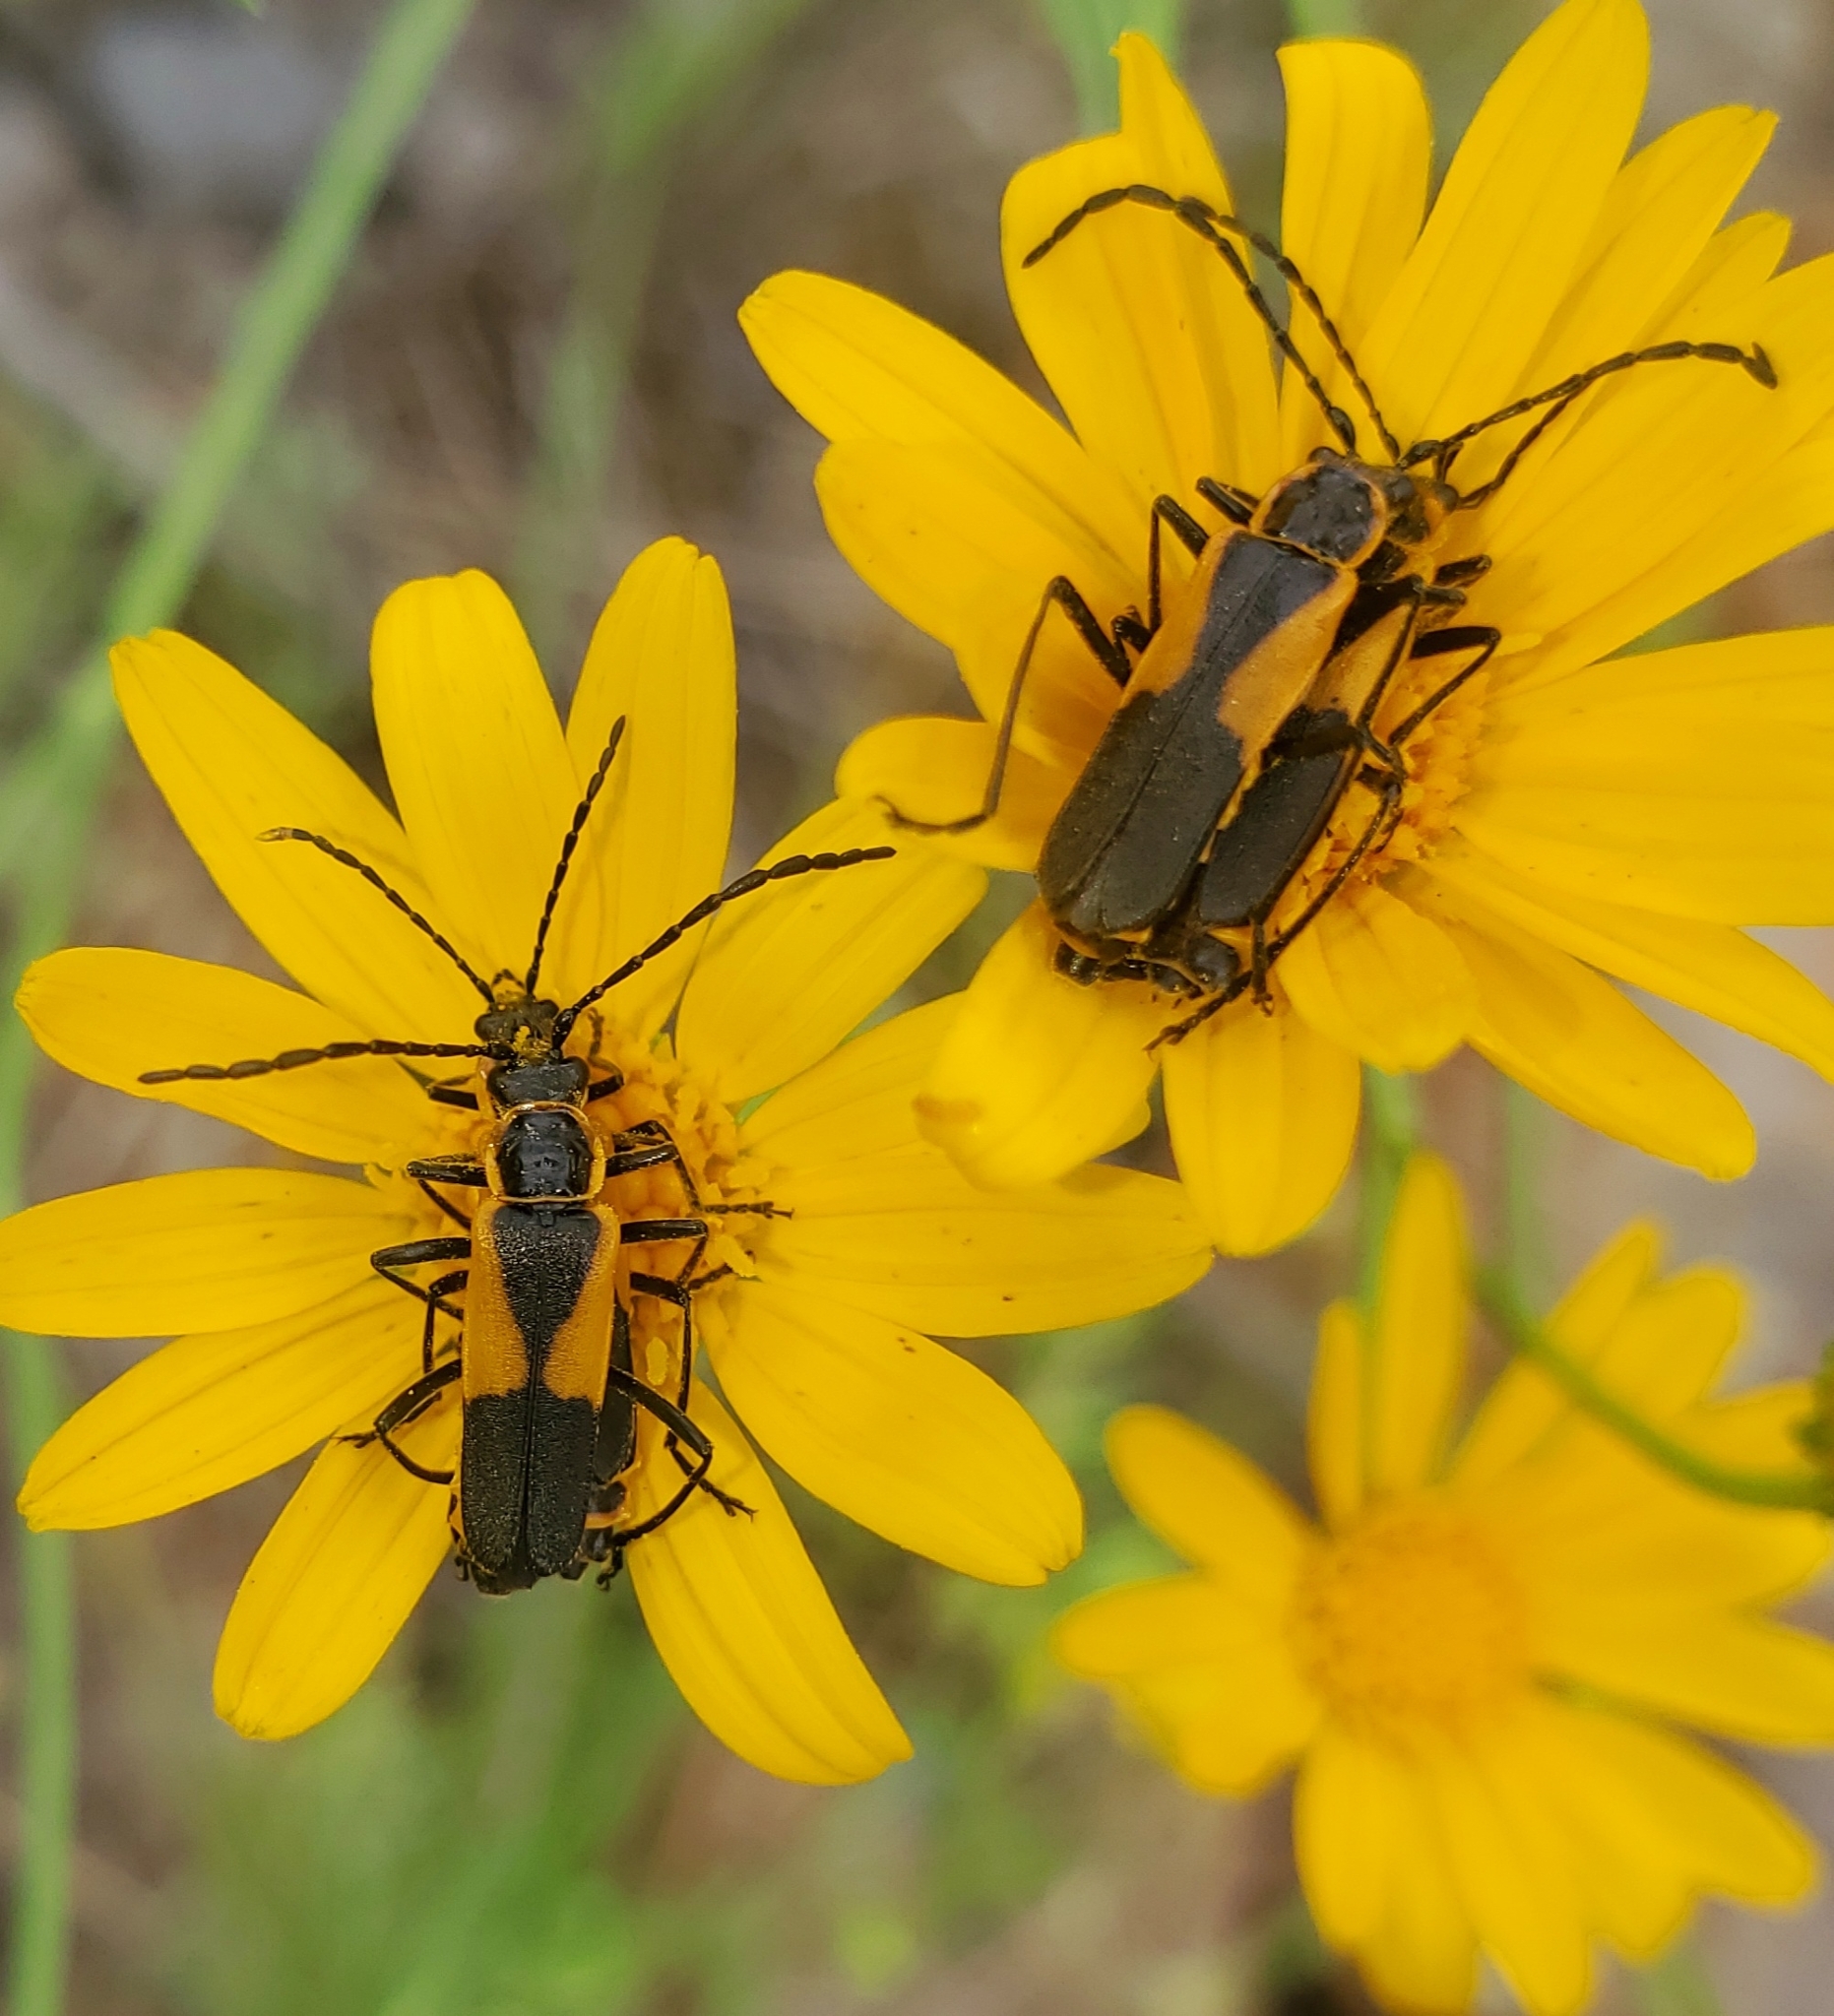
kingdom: Animalia
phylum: Arthropoda
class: Insecta
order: Coleoptera
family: Cantharidae
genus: Chauliognathus
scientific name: Chauliognathus deceptus
